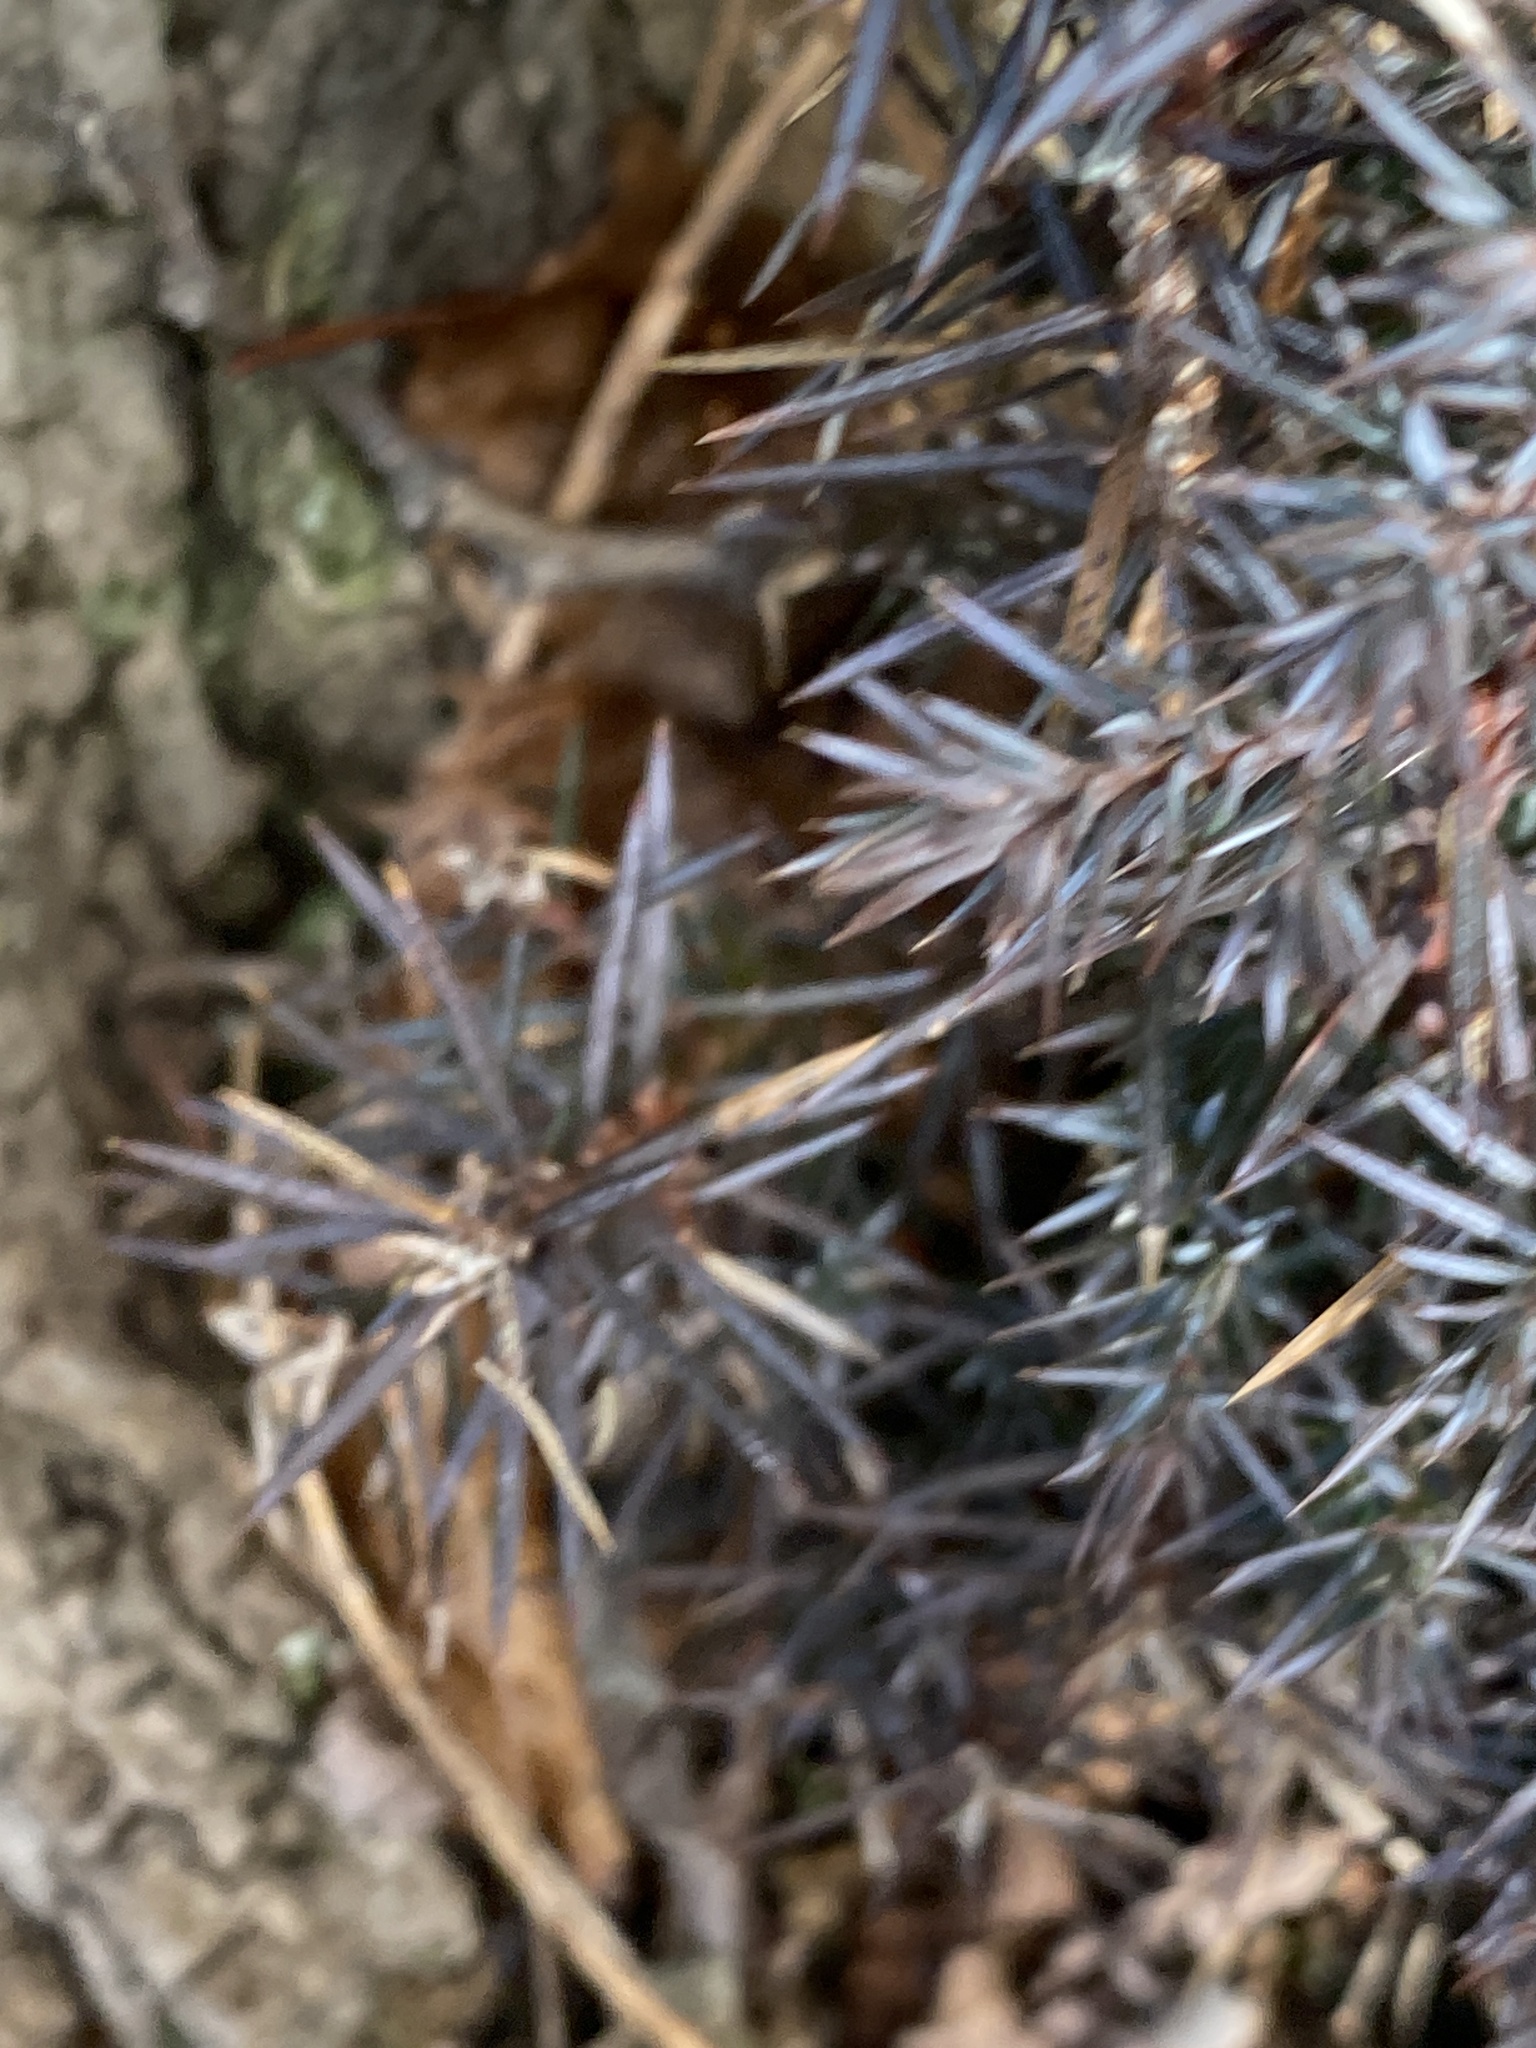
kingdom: Plantae
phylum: Tracheophyta
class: Pinopsida
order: Pinales
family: Cupressaceae
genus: Juniperus
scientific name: Juniperus virginiana
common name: Red juniper
